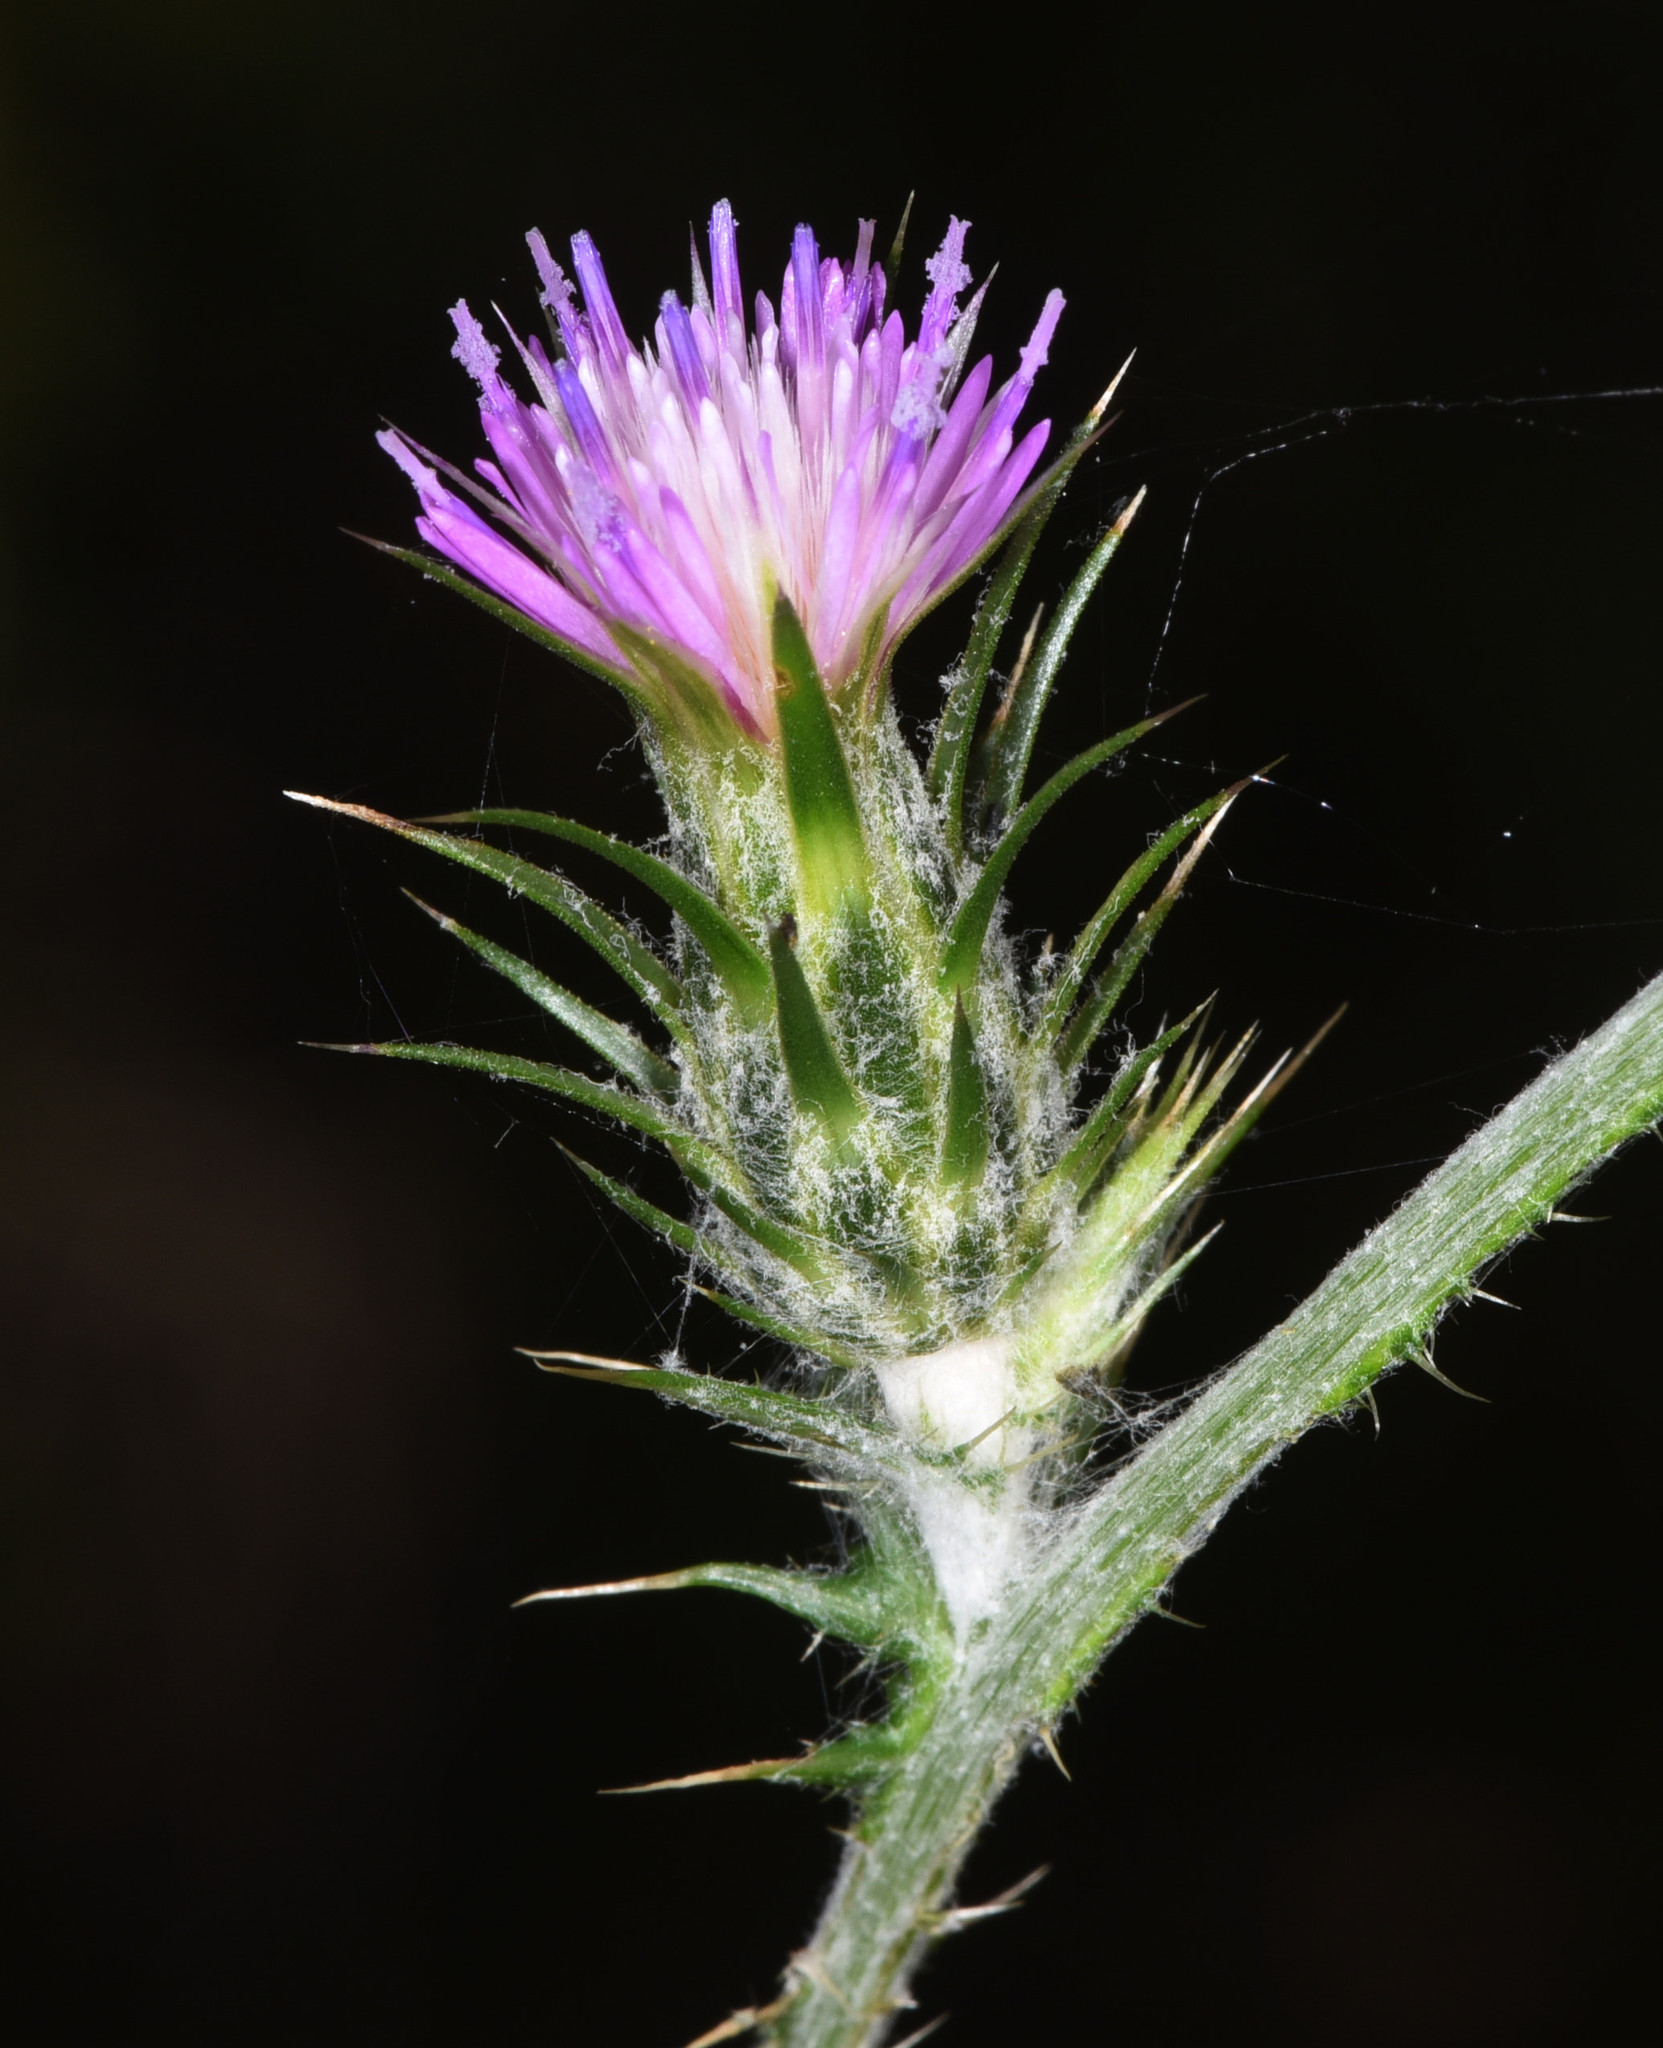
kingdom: Plantae
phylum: Tracheophyta
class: Magnoliopsida
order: Asterales
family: Asteraceae
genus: Carduus
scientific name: Carduus pycnocephalus
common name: Plymouth thistle
